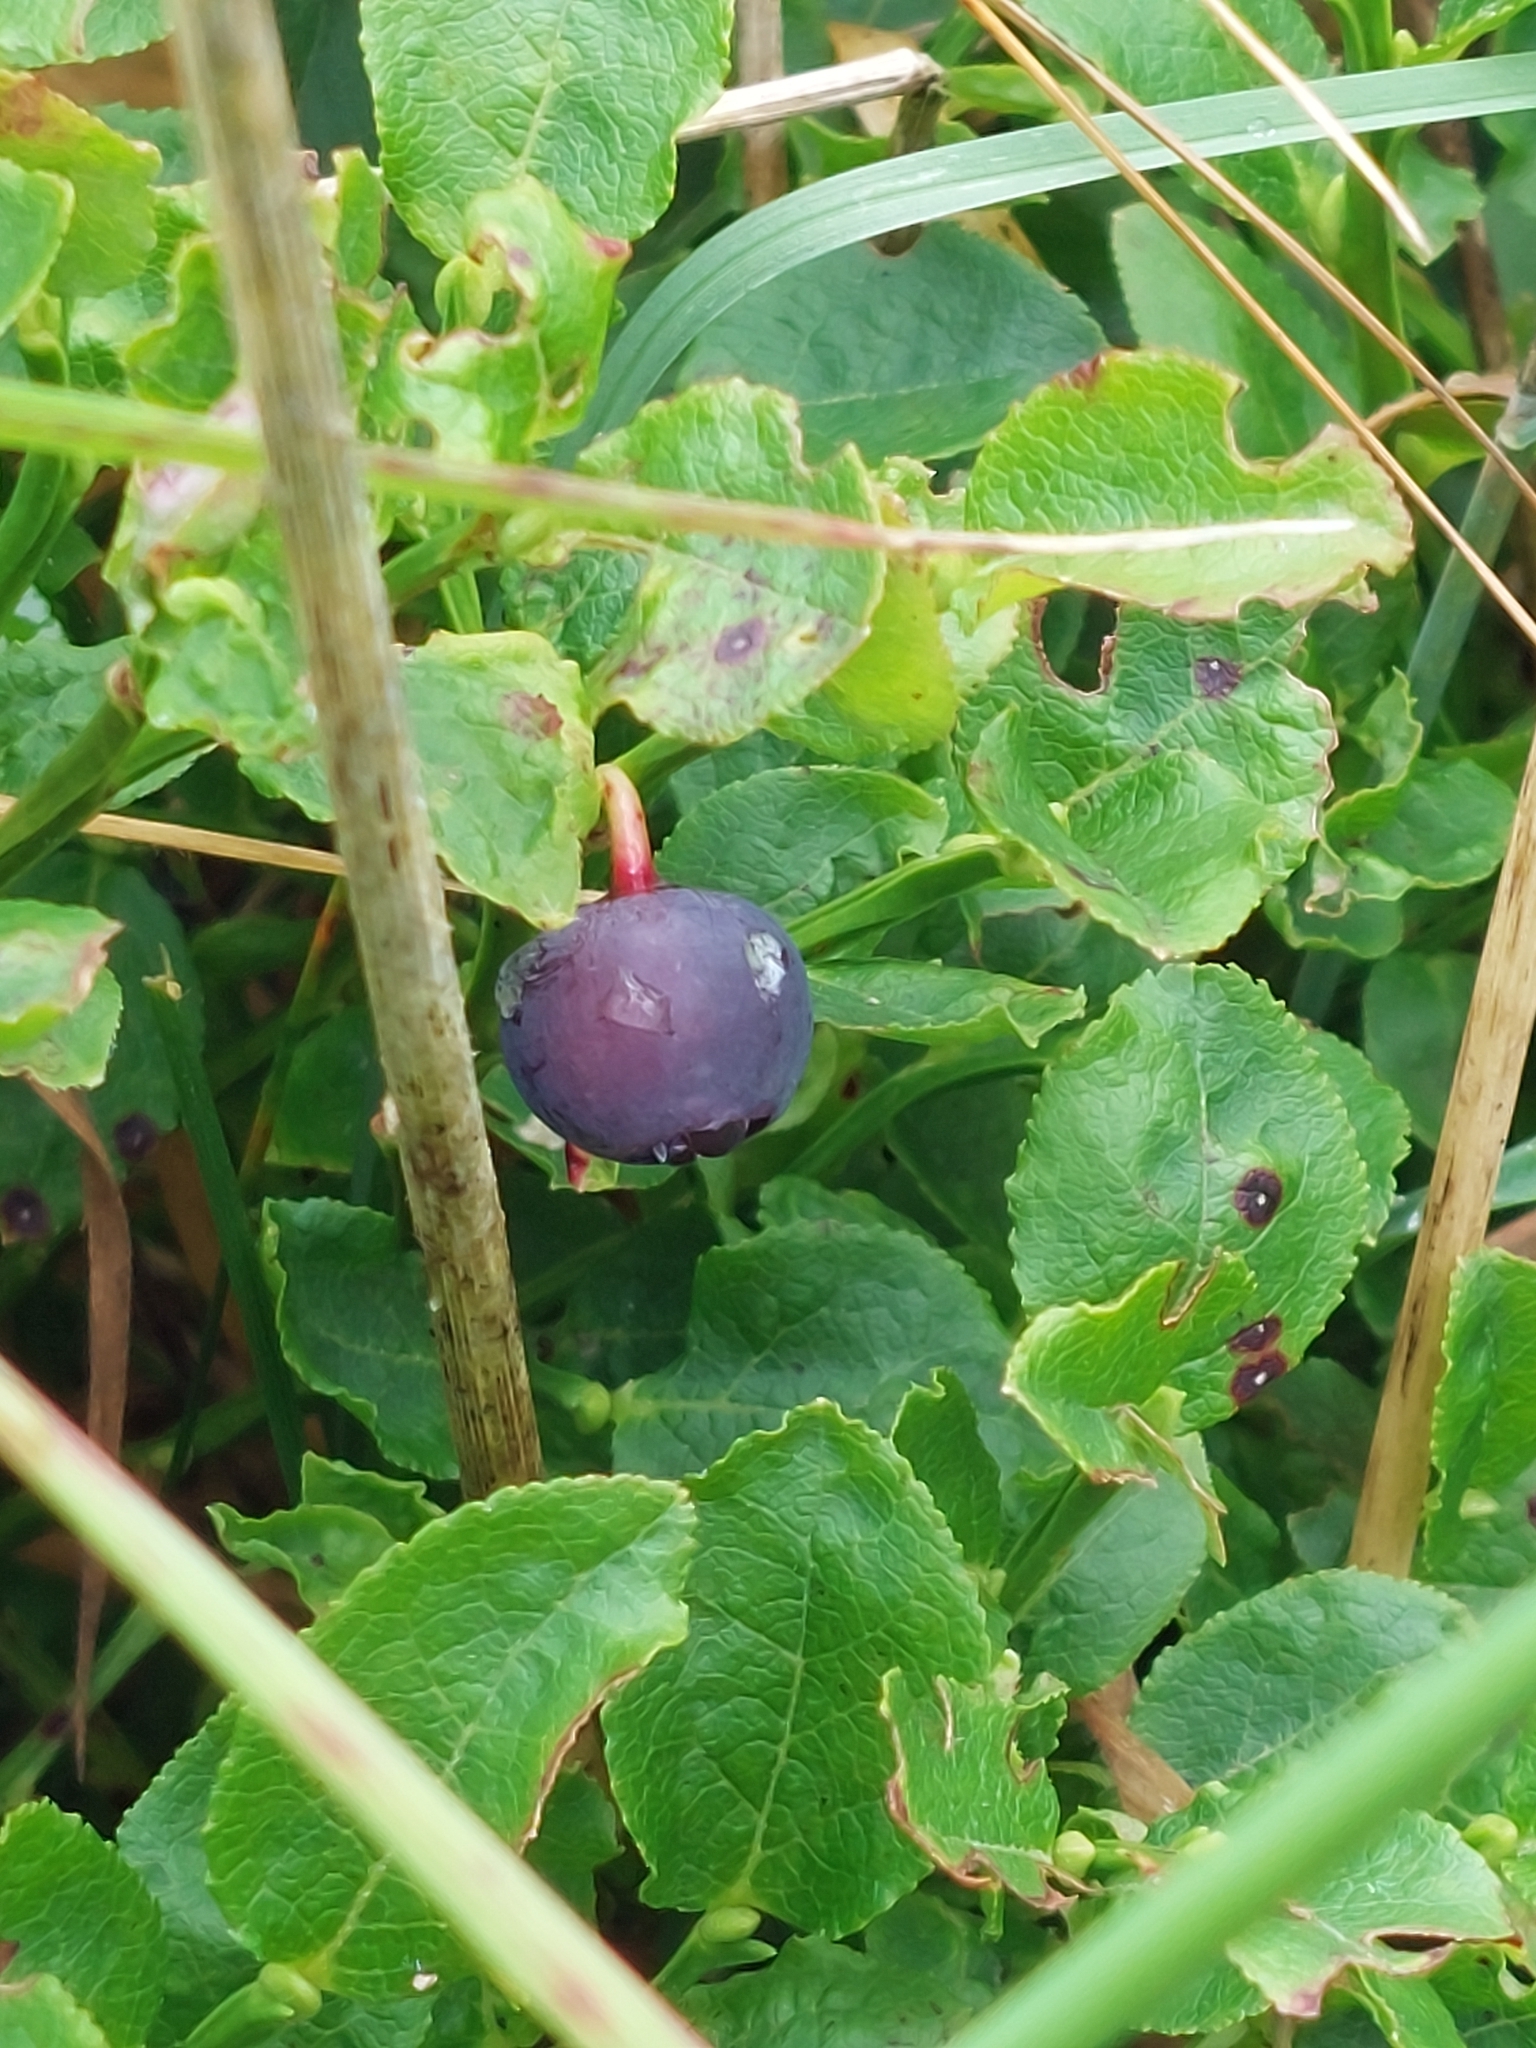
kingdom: Plantae
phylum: Tracheophyta
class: Magnoliopsida
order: Ericales
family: Ericaceae
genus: Vaccinium
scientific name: Vaccinium myrtillus
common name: Bilberry
